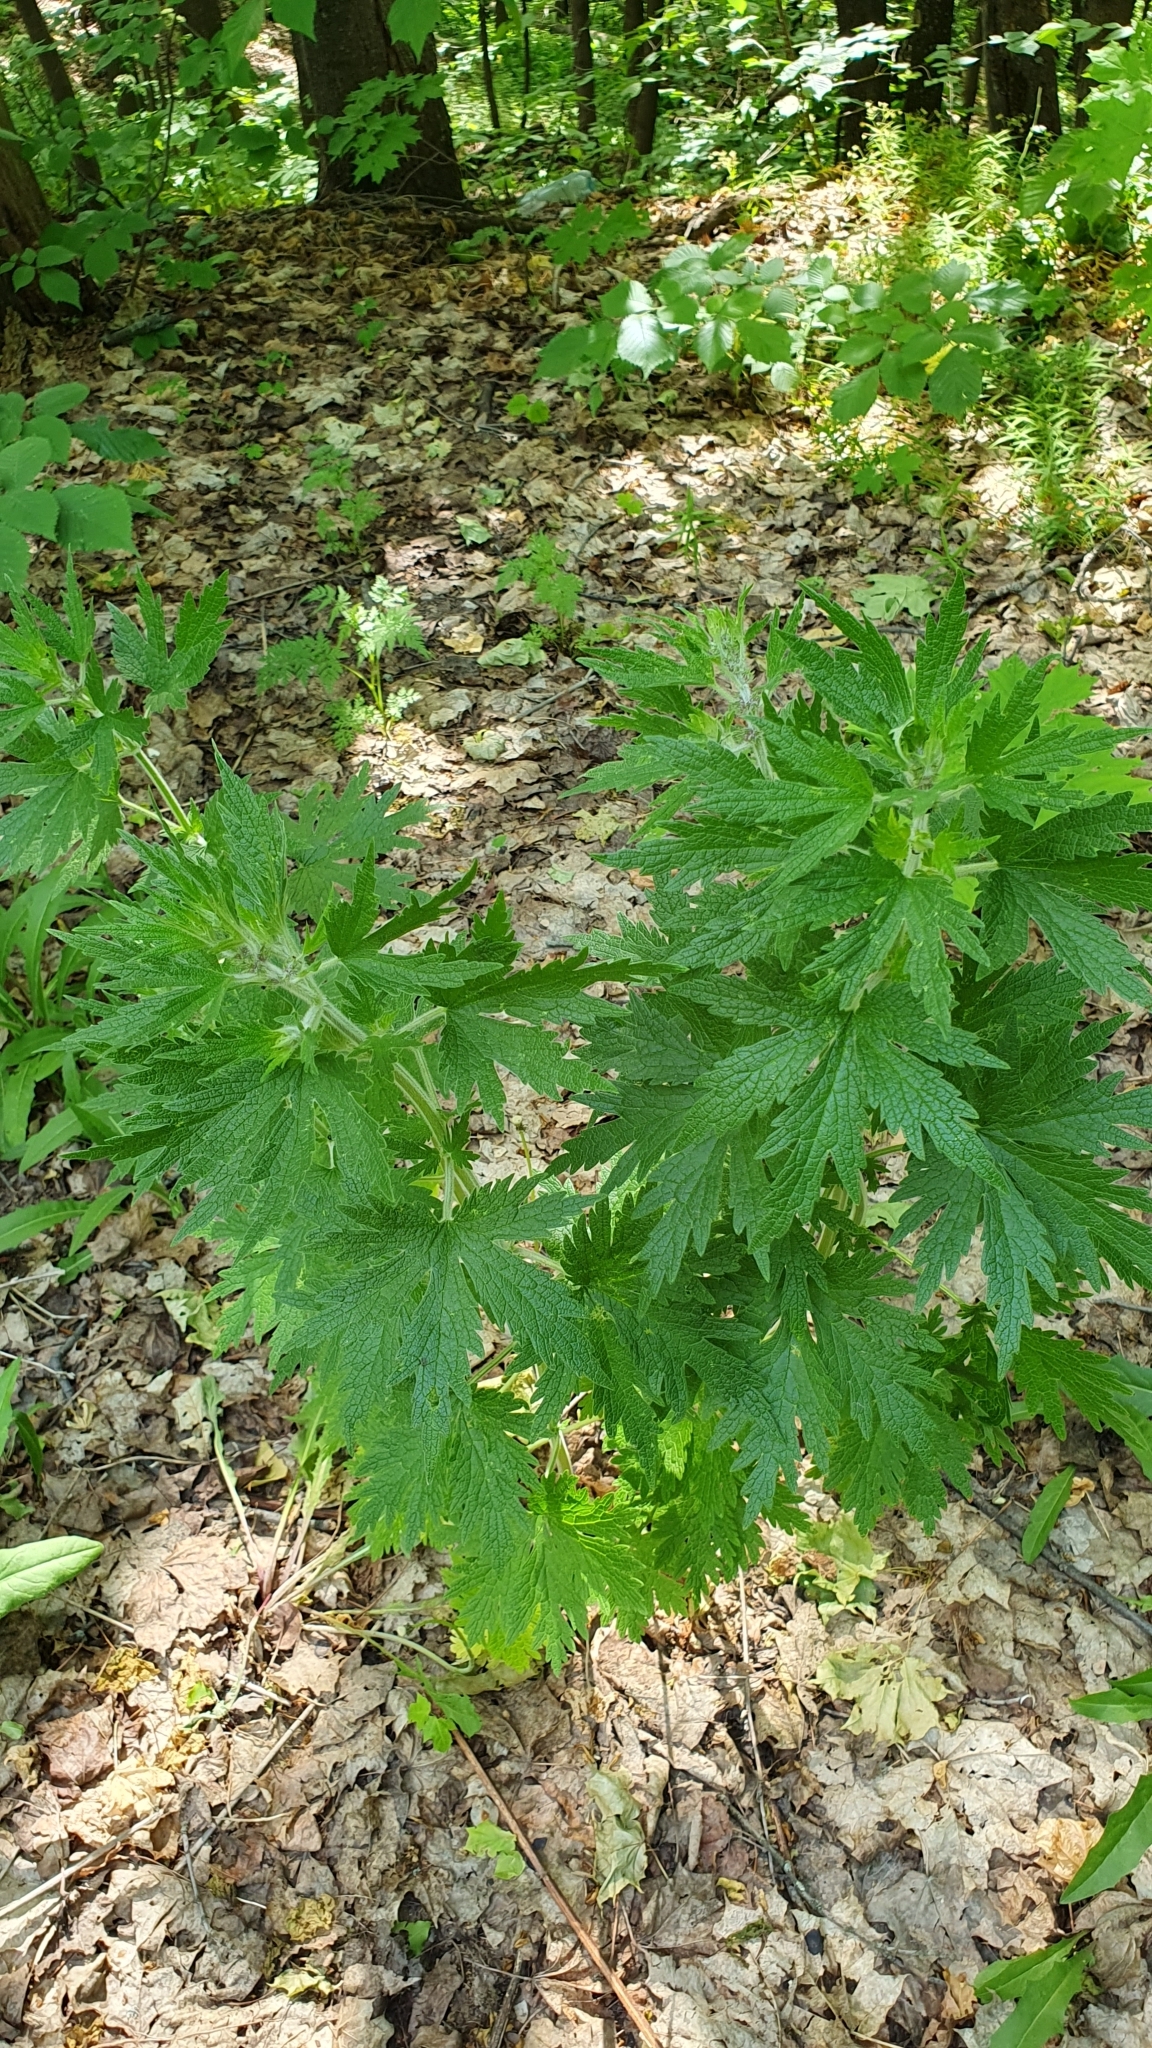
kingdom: Plantae
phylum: Tracheophyta
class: Magnoliopsida
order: Lamiales
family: Lamiaceae
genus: Leonurus
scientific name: Leonurus quinquelobatus
